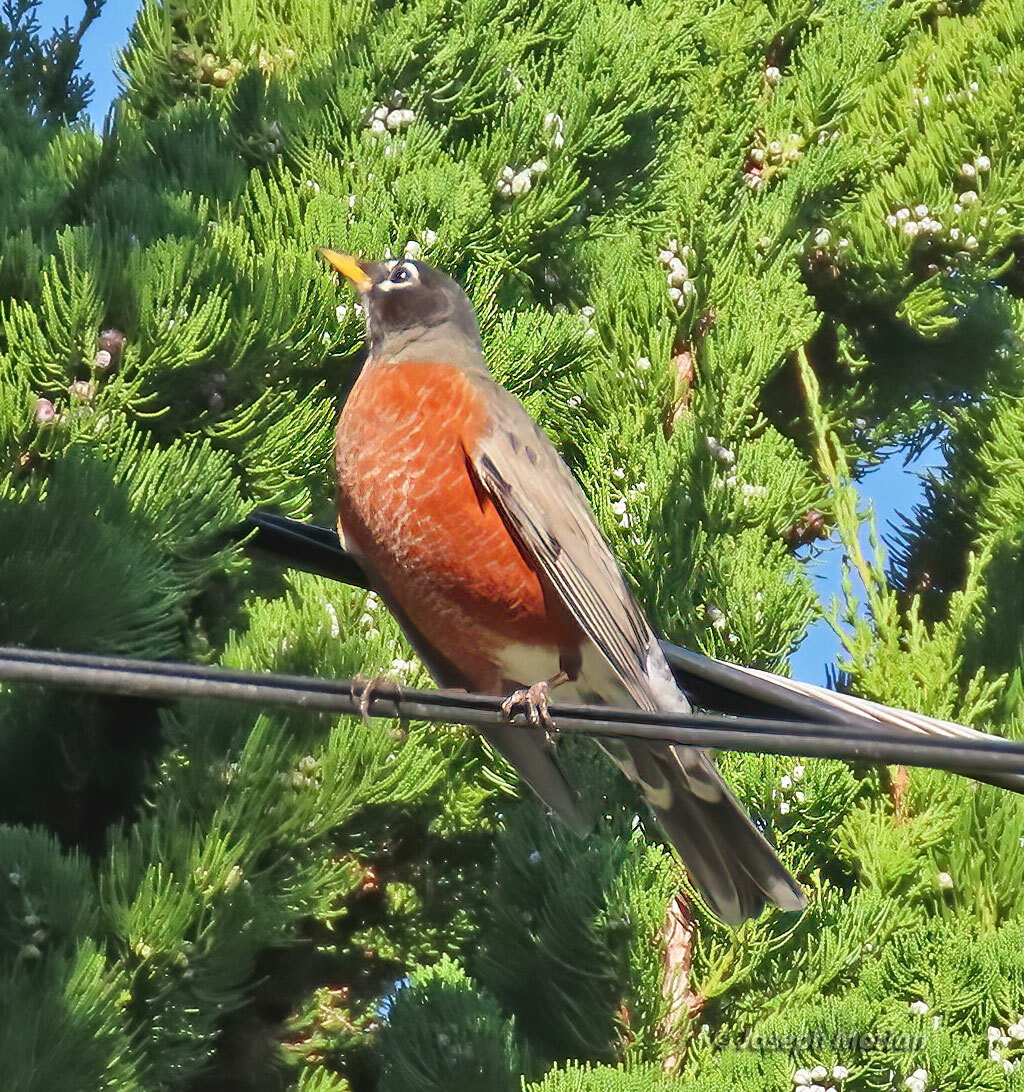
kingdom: Animalia
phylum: Chordata
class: Aves
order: Passeriformes
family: Turdidae
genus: Turdus
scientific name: Turdus migratorius
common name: American robin
